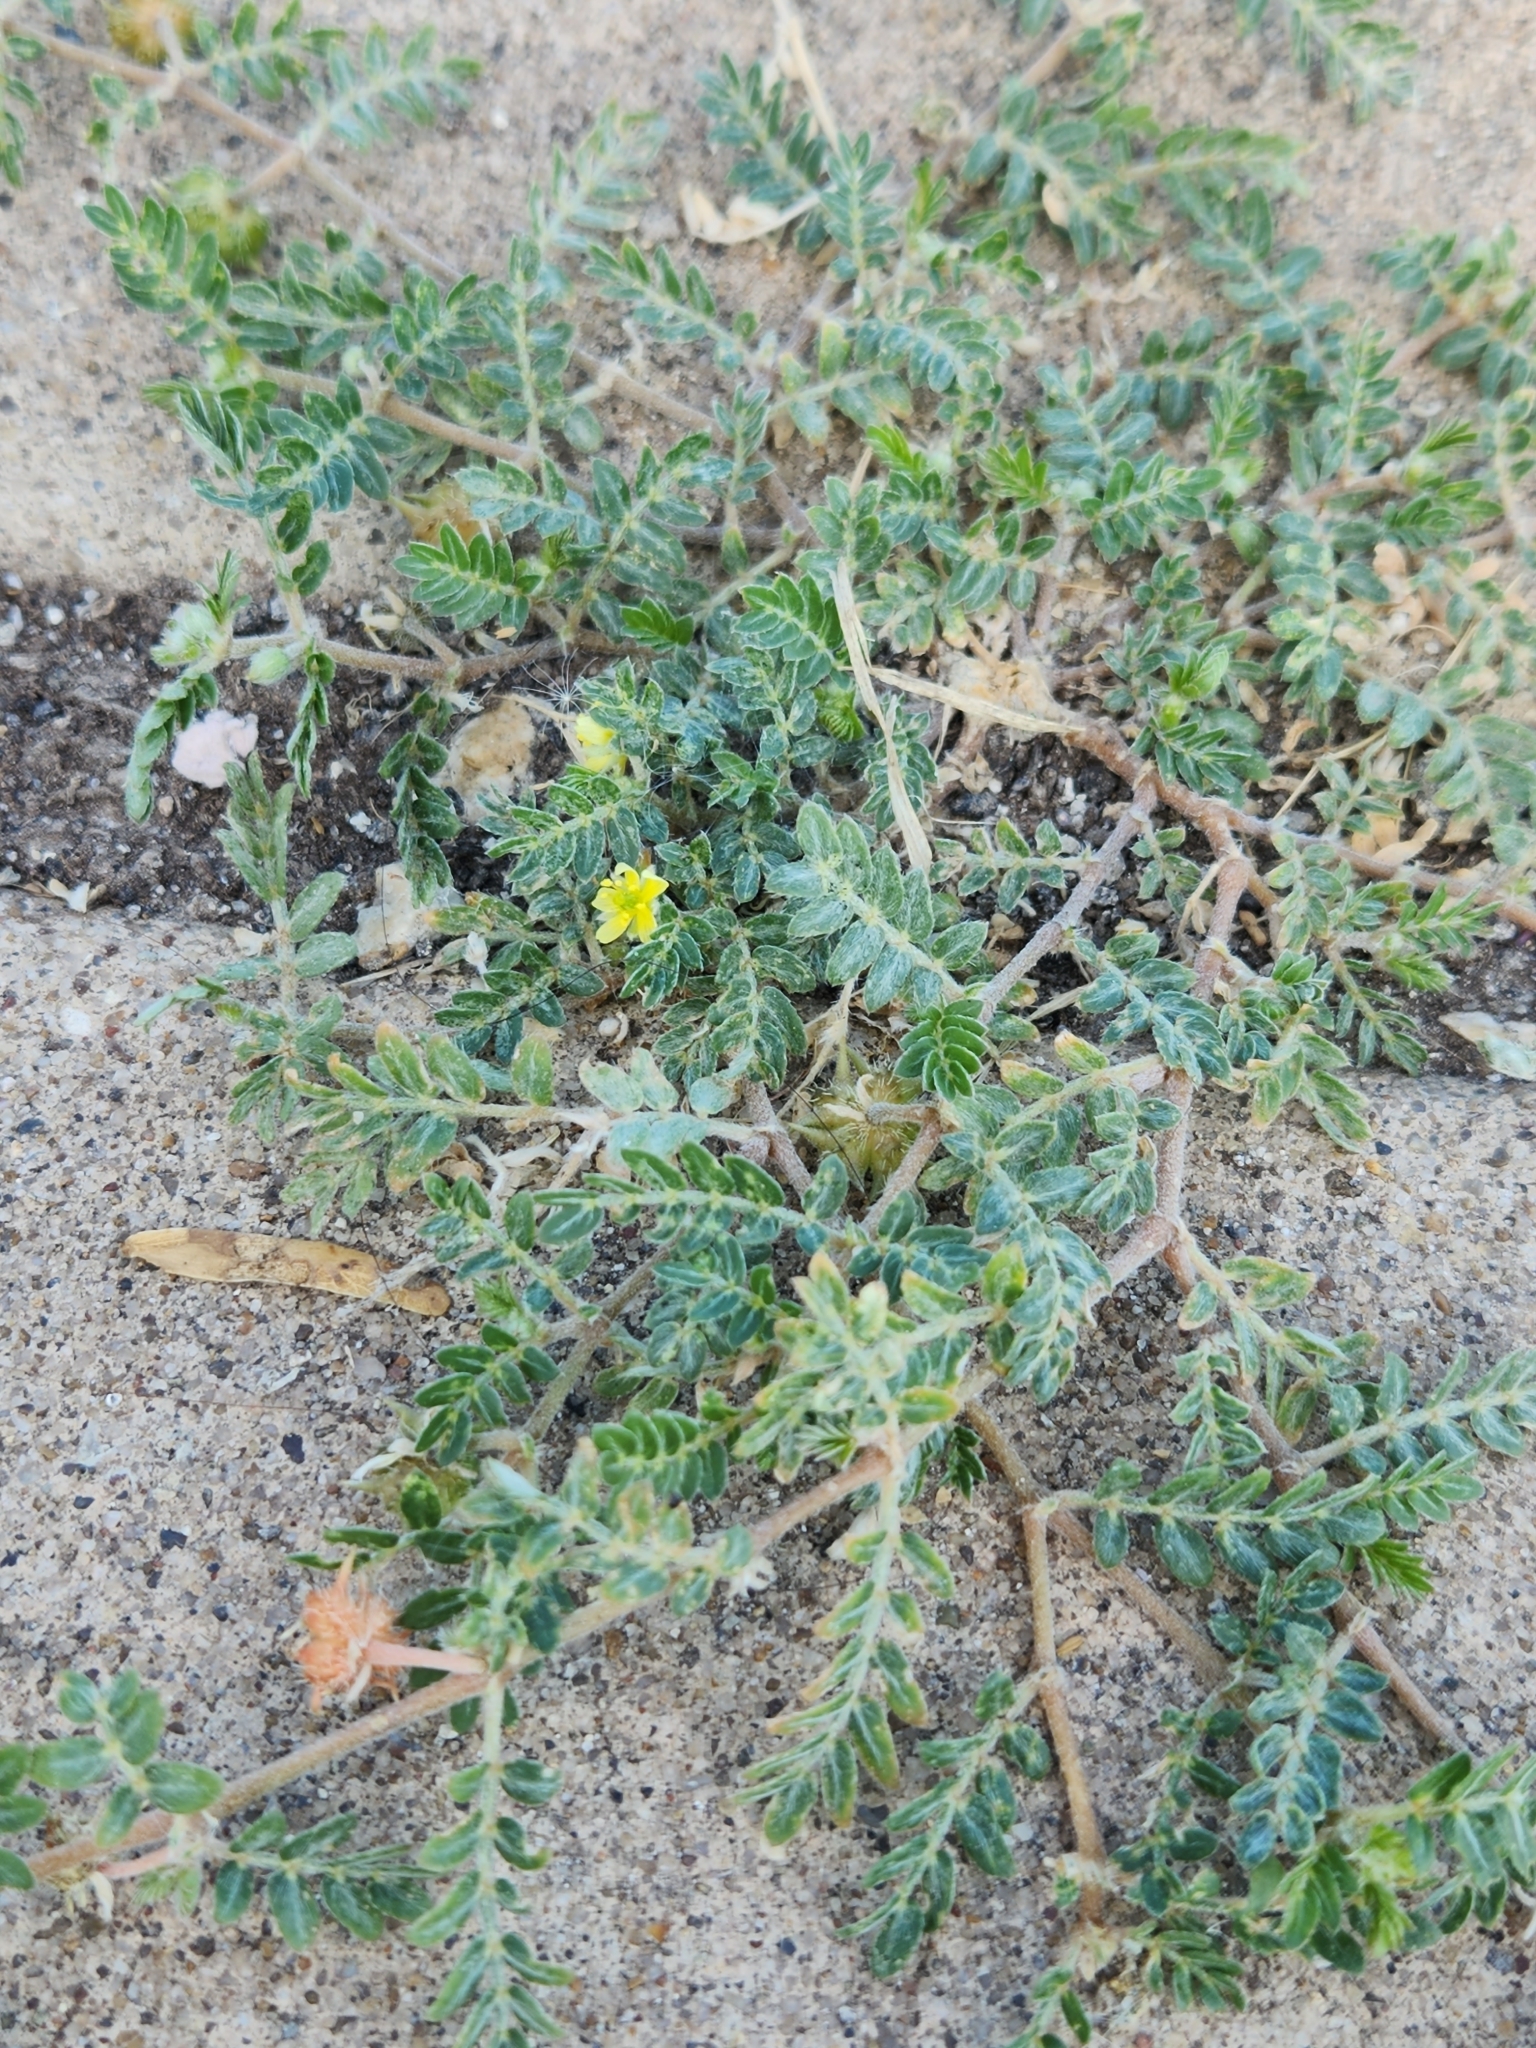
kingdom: Plantae
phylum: Tracheophyta
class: Magnoliopsida
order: Zygophyllales
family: Zygophyllaceae
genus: Tribulus
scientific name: Tribulus terrestris
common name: Puncturevine
